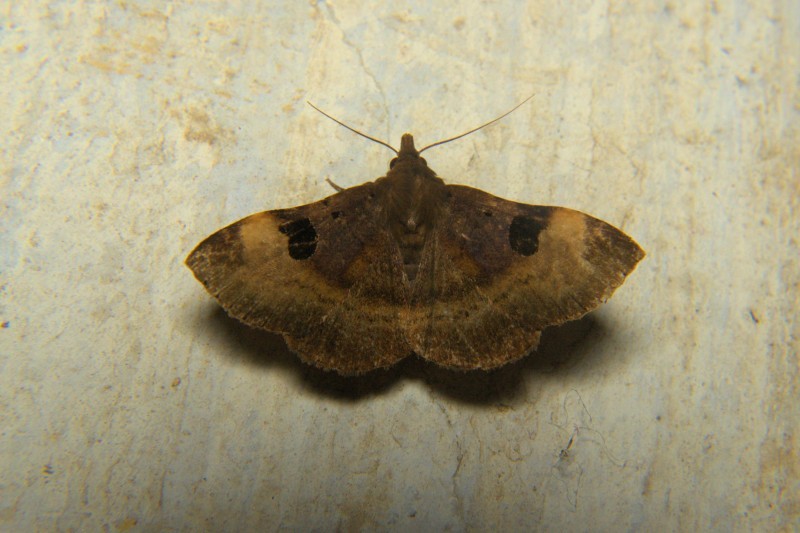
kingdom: Animalia
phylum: Arthropoda
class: Insecta
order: Lepidoptera
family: Erebidae
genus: Mosopia
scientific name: Mosopia magniplaga
